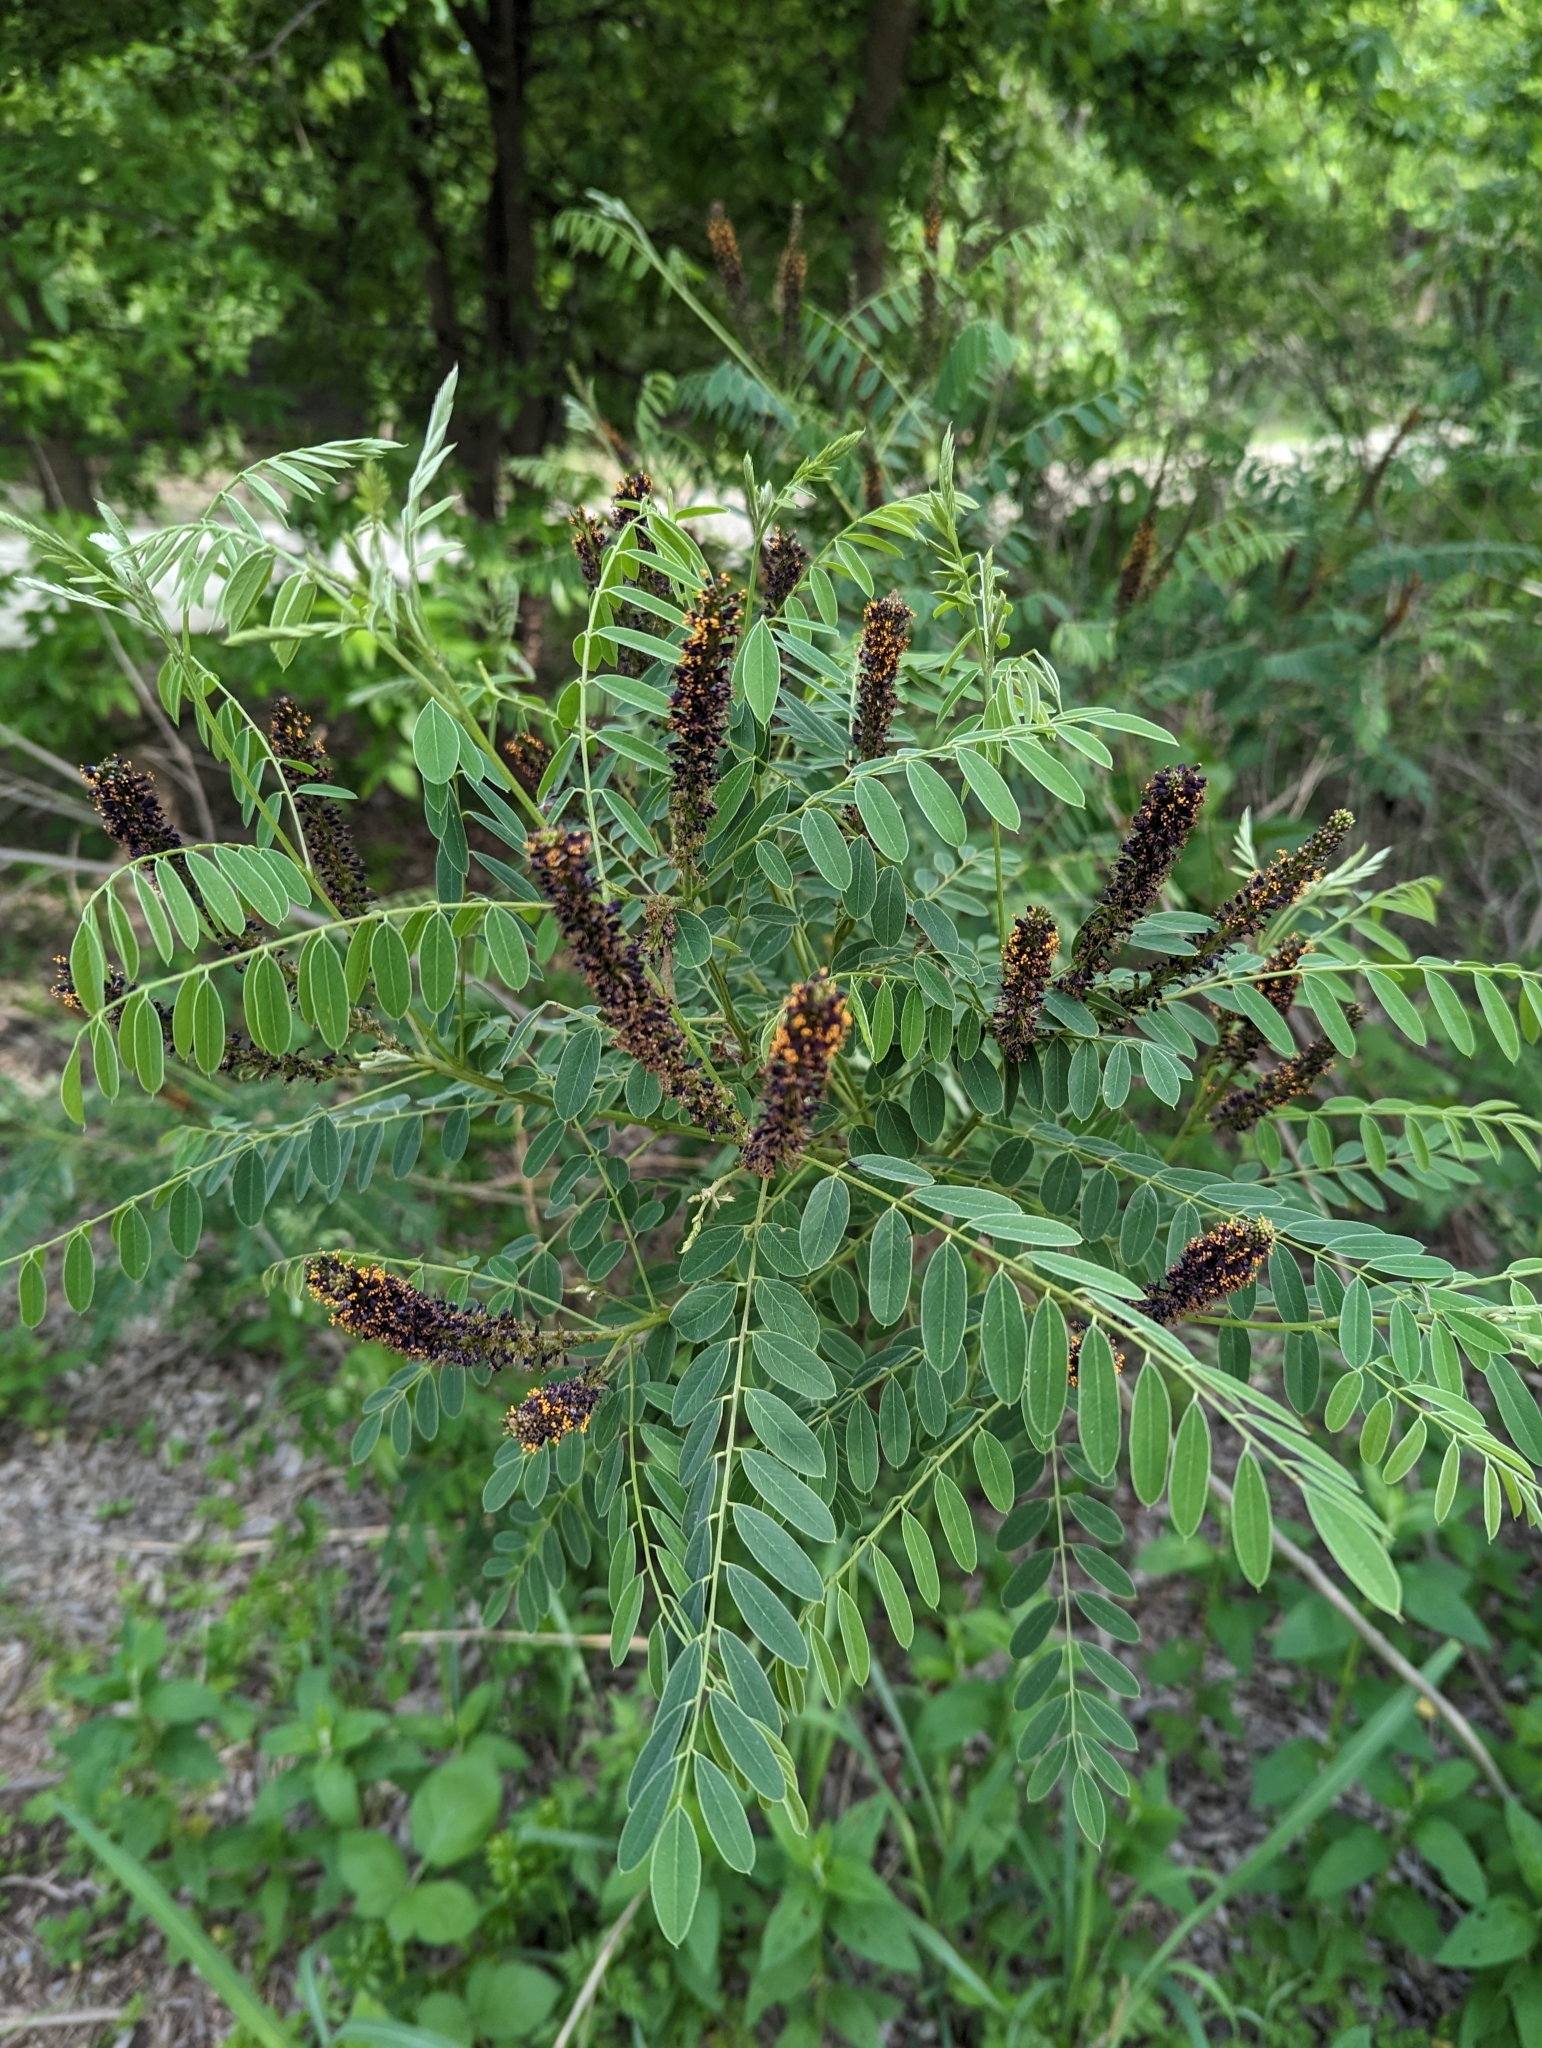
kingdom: Plantae
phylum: Tracheophyta
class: Magnoliopsida
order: Fabales
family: Fabaceae
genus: Amorpha
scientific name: Amorpha fruticosa
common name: False indigo
